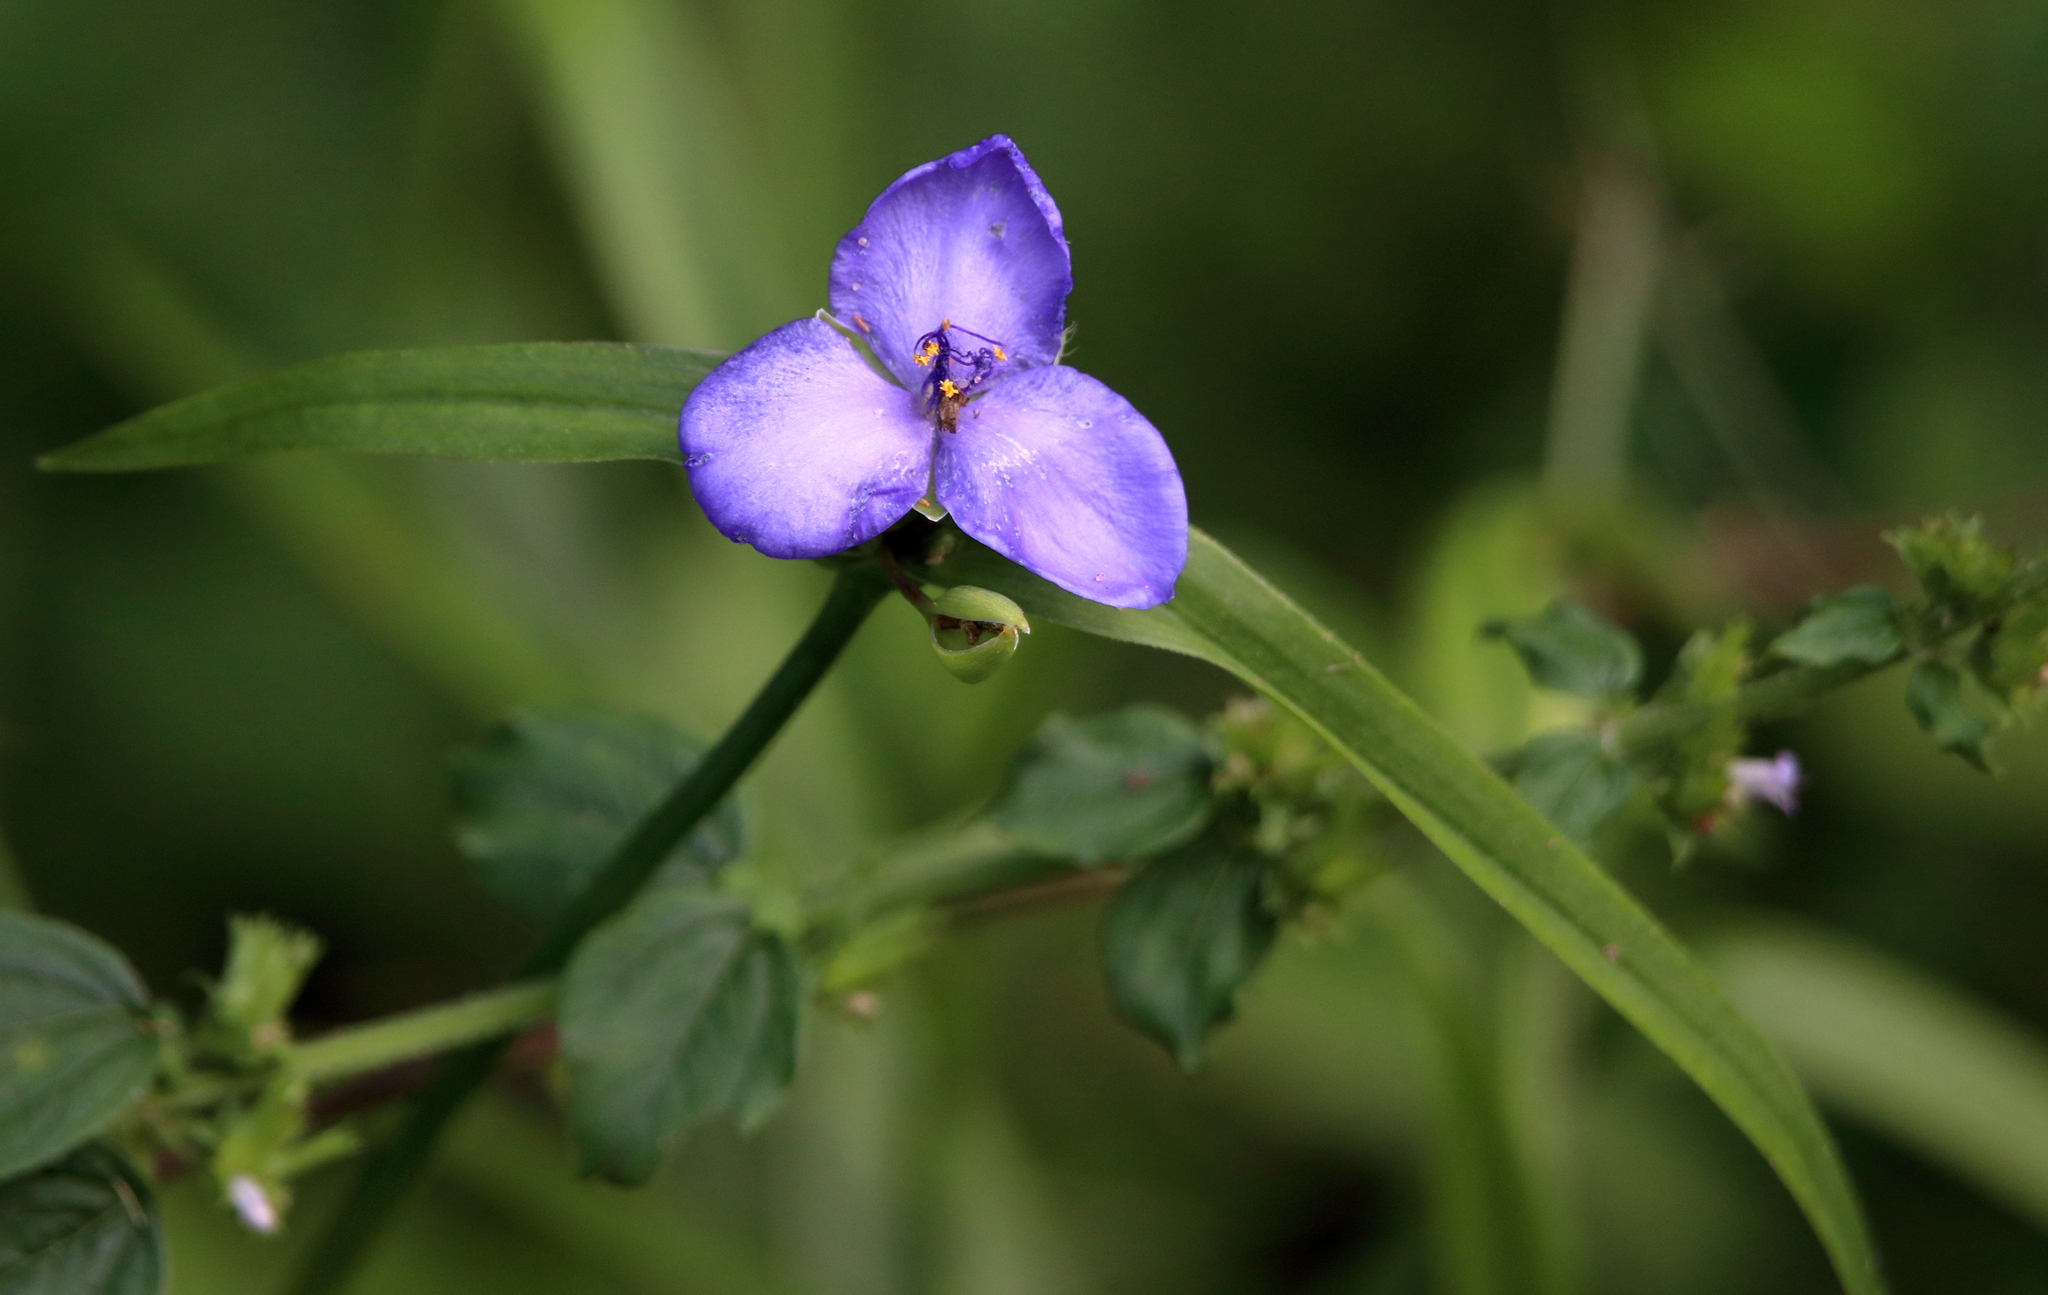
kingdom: Plantae
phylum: Tracheophyta
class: Liliopsida
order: Commelinales
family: Commelinaceae
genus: Tradescantia
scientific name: Tradescantia ohiensis
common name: Ohio spiderwort
